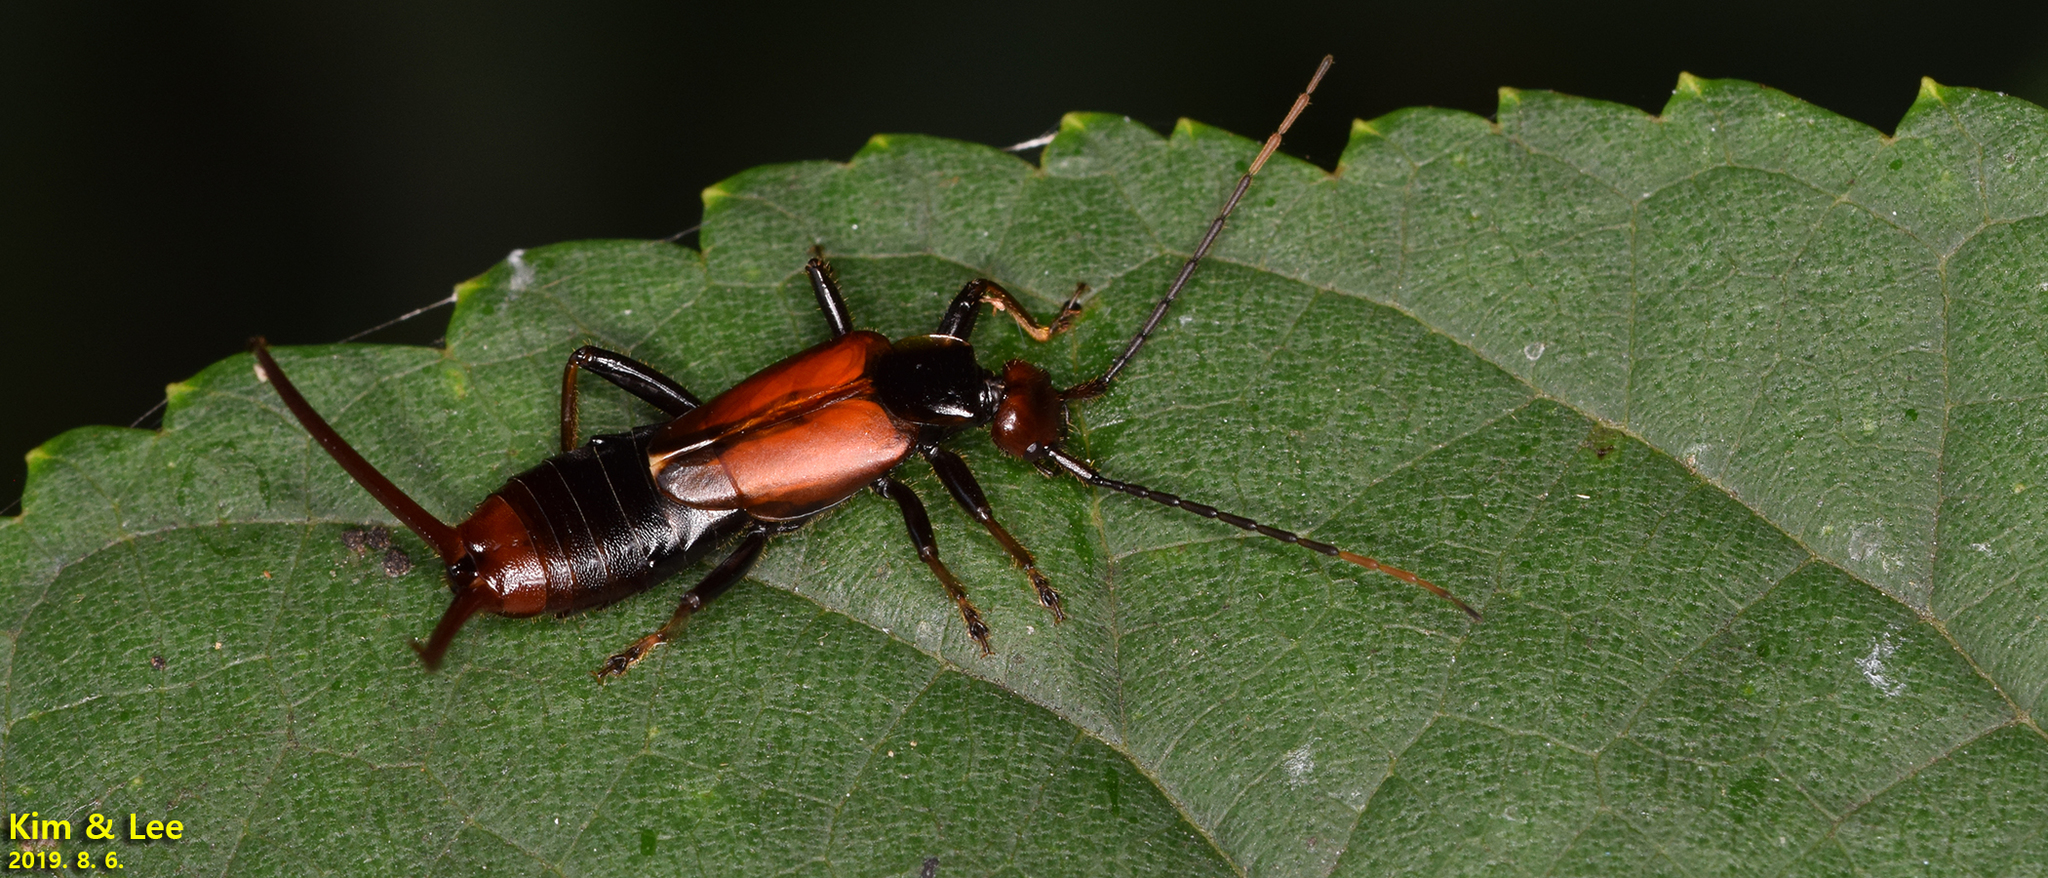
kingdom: Animalia
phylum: Arthropoda
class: Insecta
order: Dermaptera
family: Forficulidae
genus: Timomenus
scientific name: Timomenus komarovi
